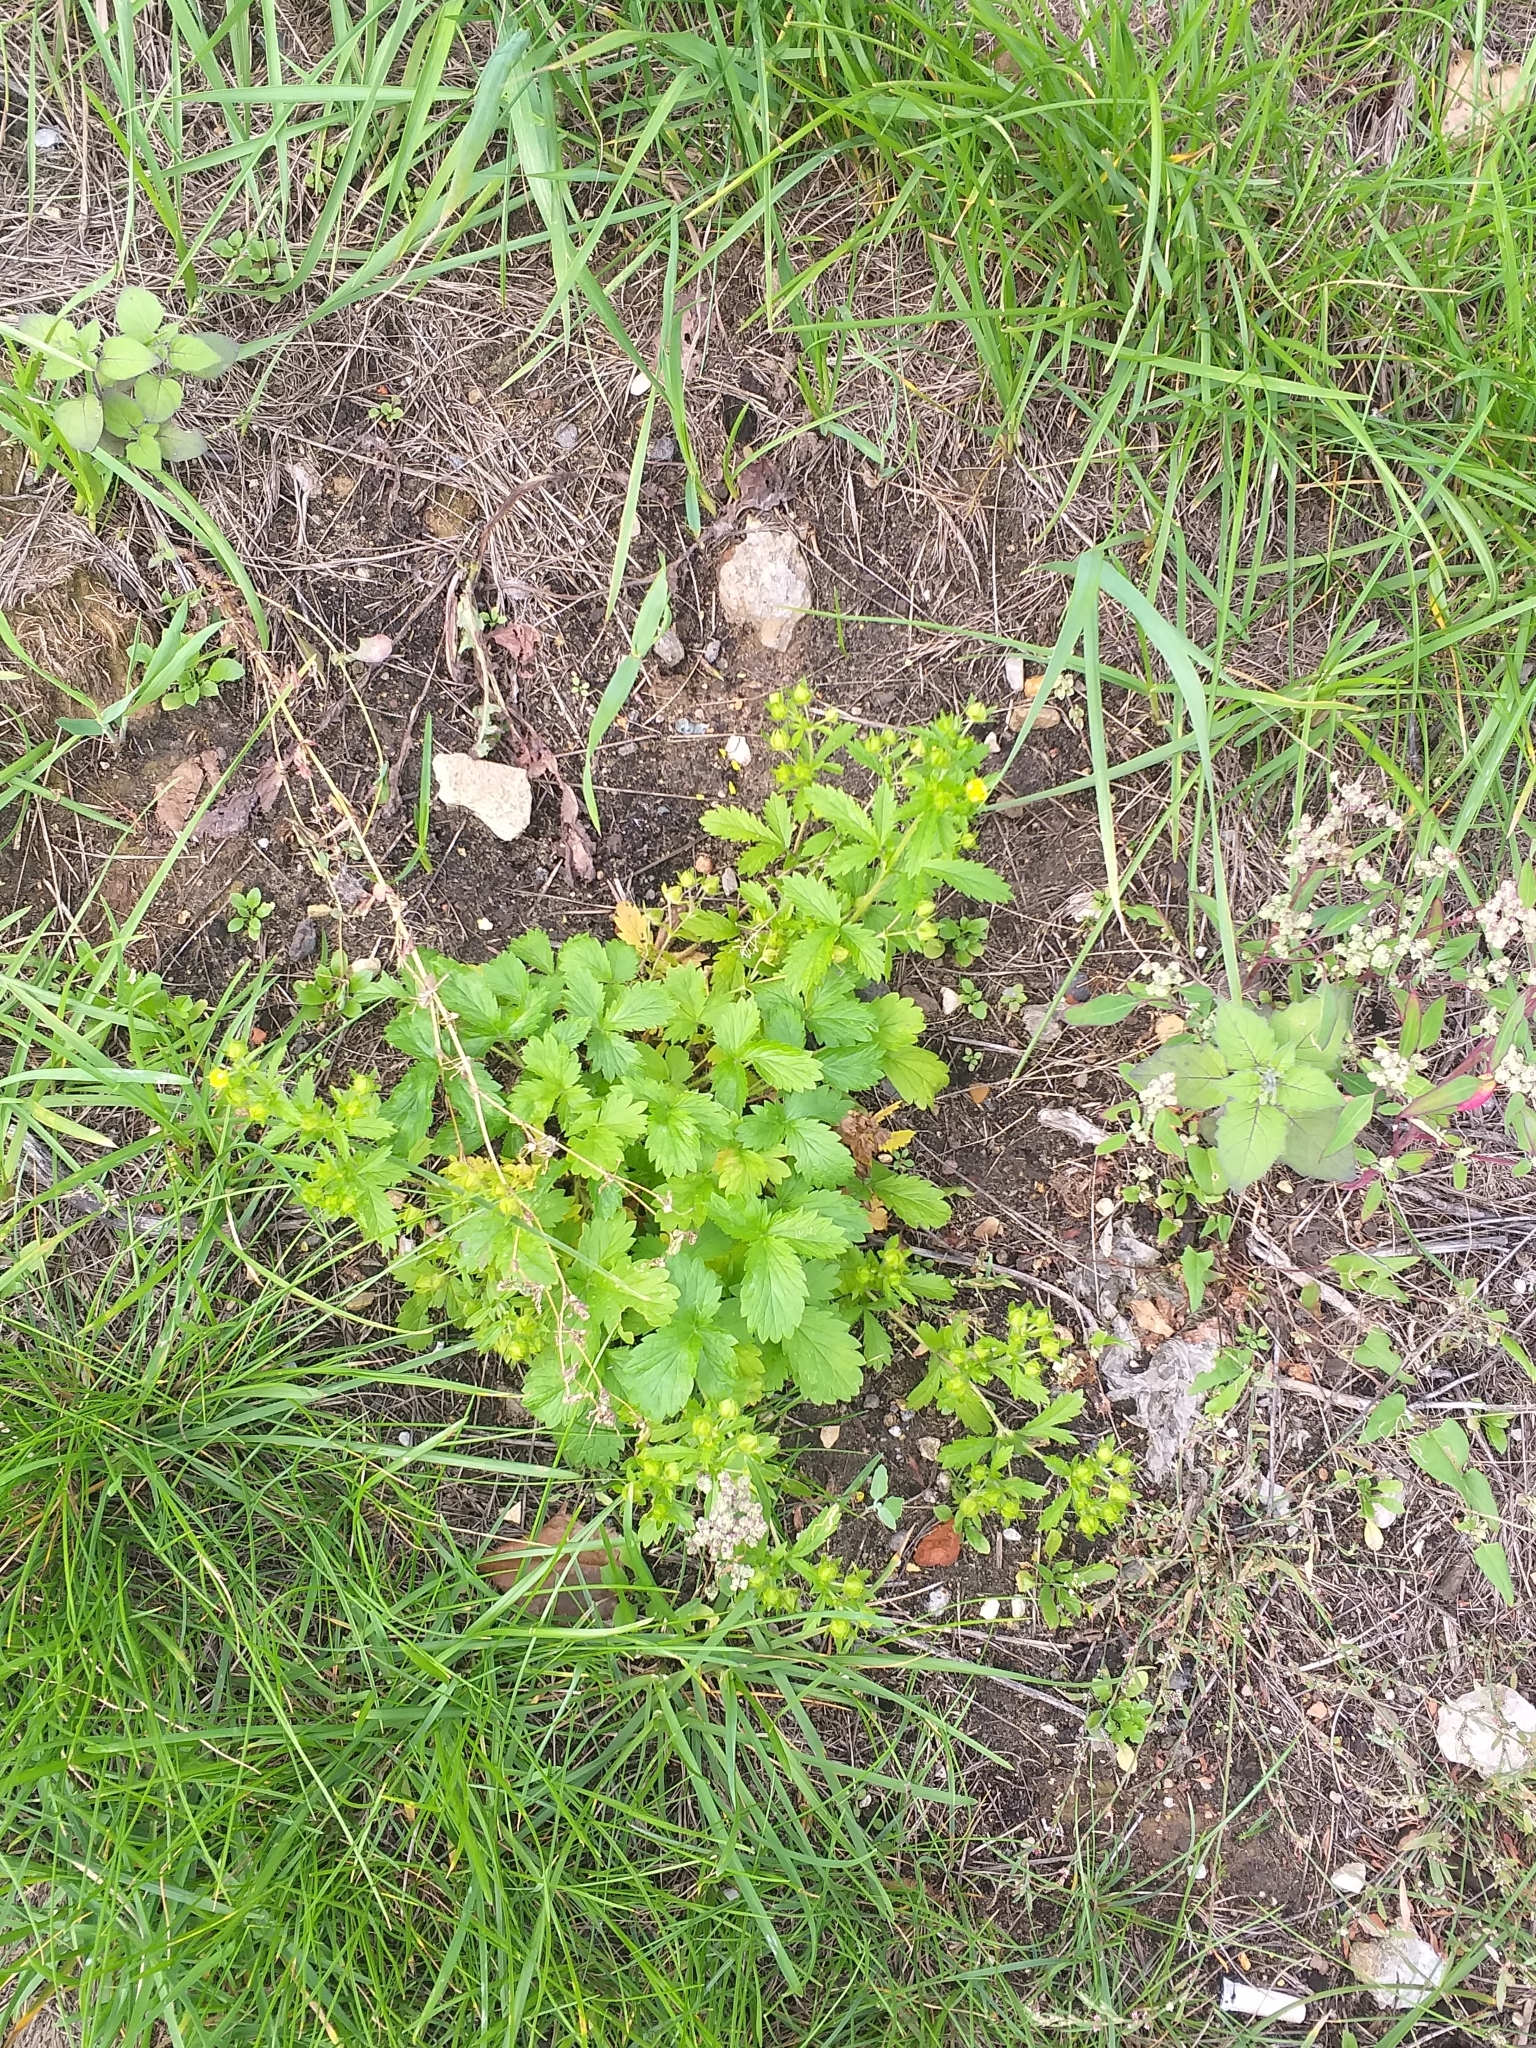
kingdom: Plantae
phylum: Tracheophyta
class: Magnoliopsida
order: Rosales
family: Rosaceae
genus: Potentilla
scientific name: Potentilla norvegica
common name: Ternate-leaved cinquefoil
